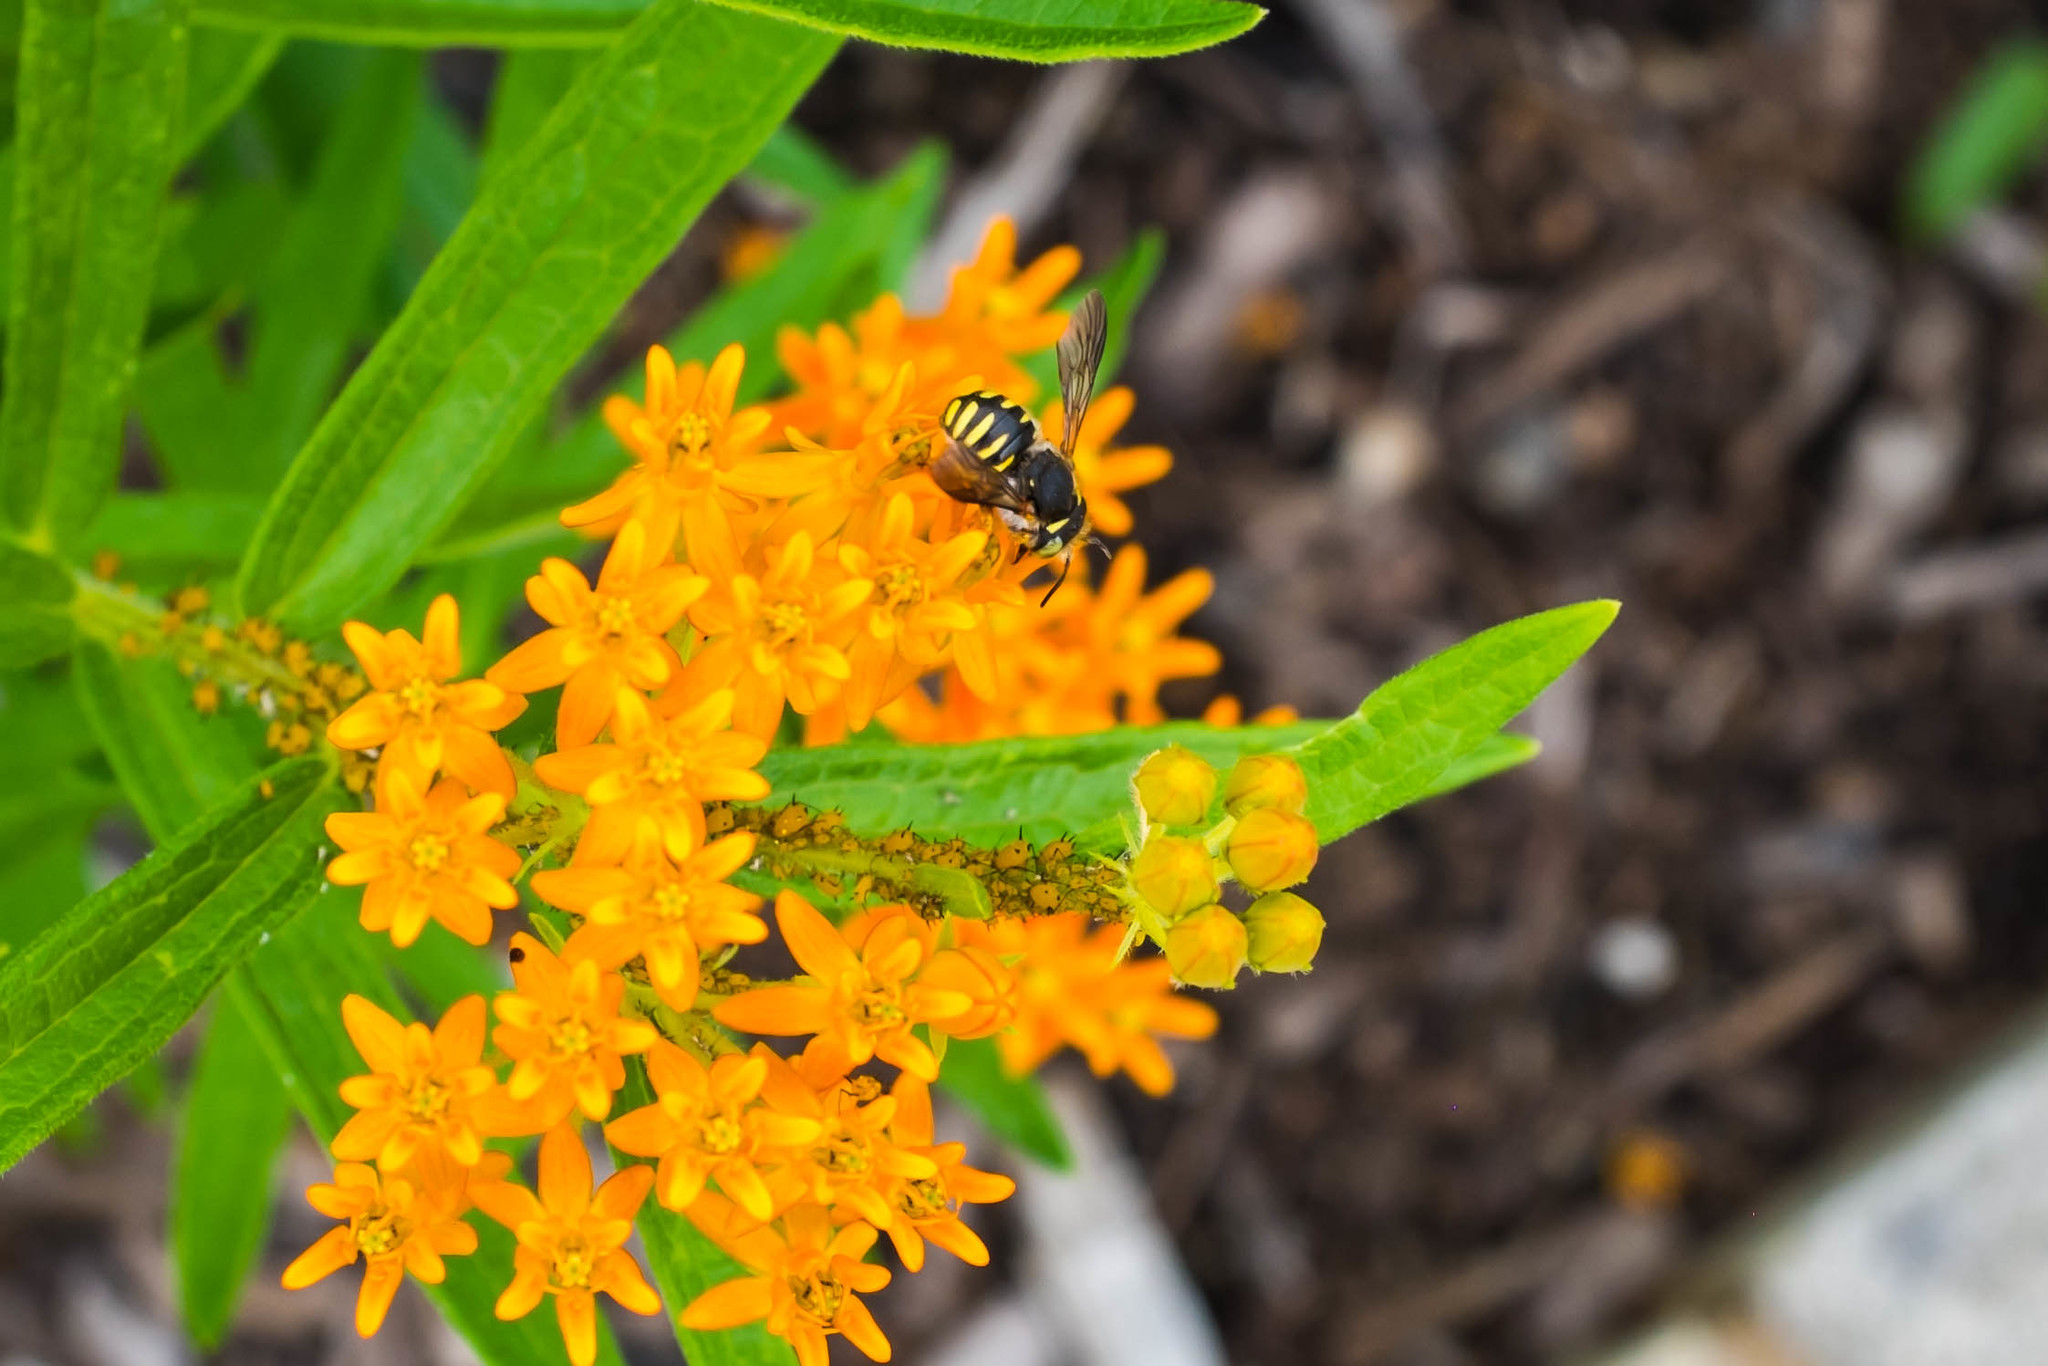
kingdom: Animalia
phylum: Arthropoda
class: Insecta
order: Hymenoptera
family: Megachilidae
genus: Anthidium
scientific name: Anthidium oblongatum
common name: Oblong wool carder bee
